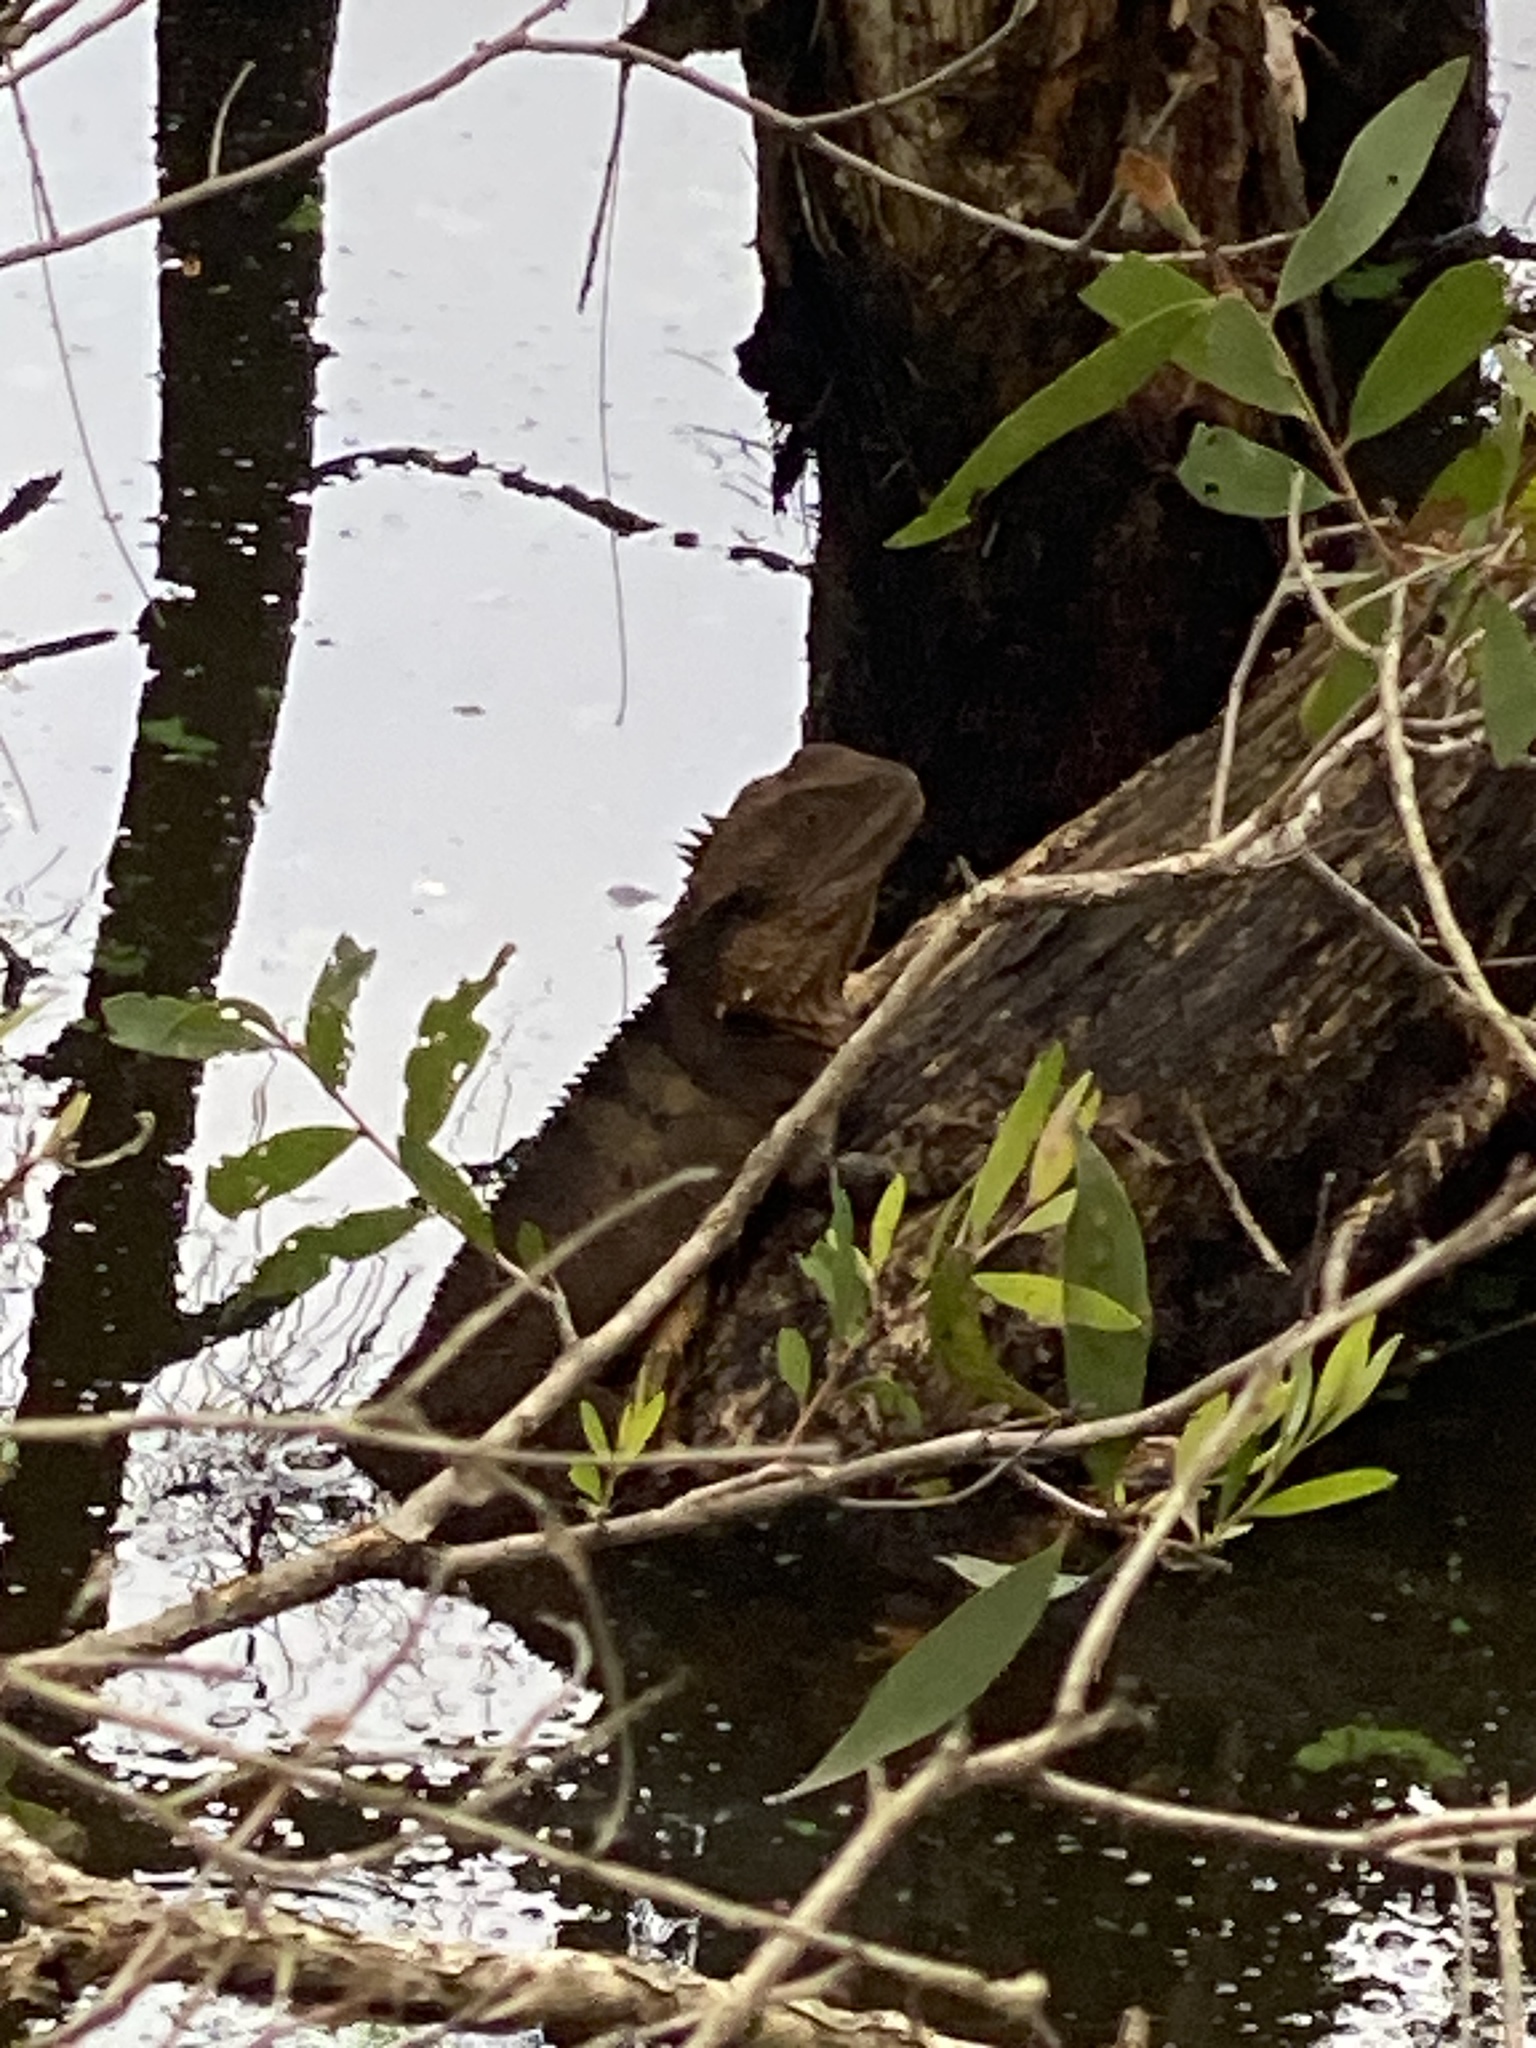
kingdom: Animalia
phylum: Chordata
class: Squamata
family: Agamidae
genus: Intellagama
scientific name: Intellagama lesueurii
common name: Eastern water dragon
